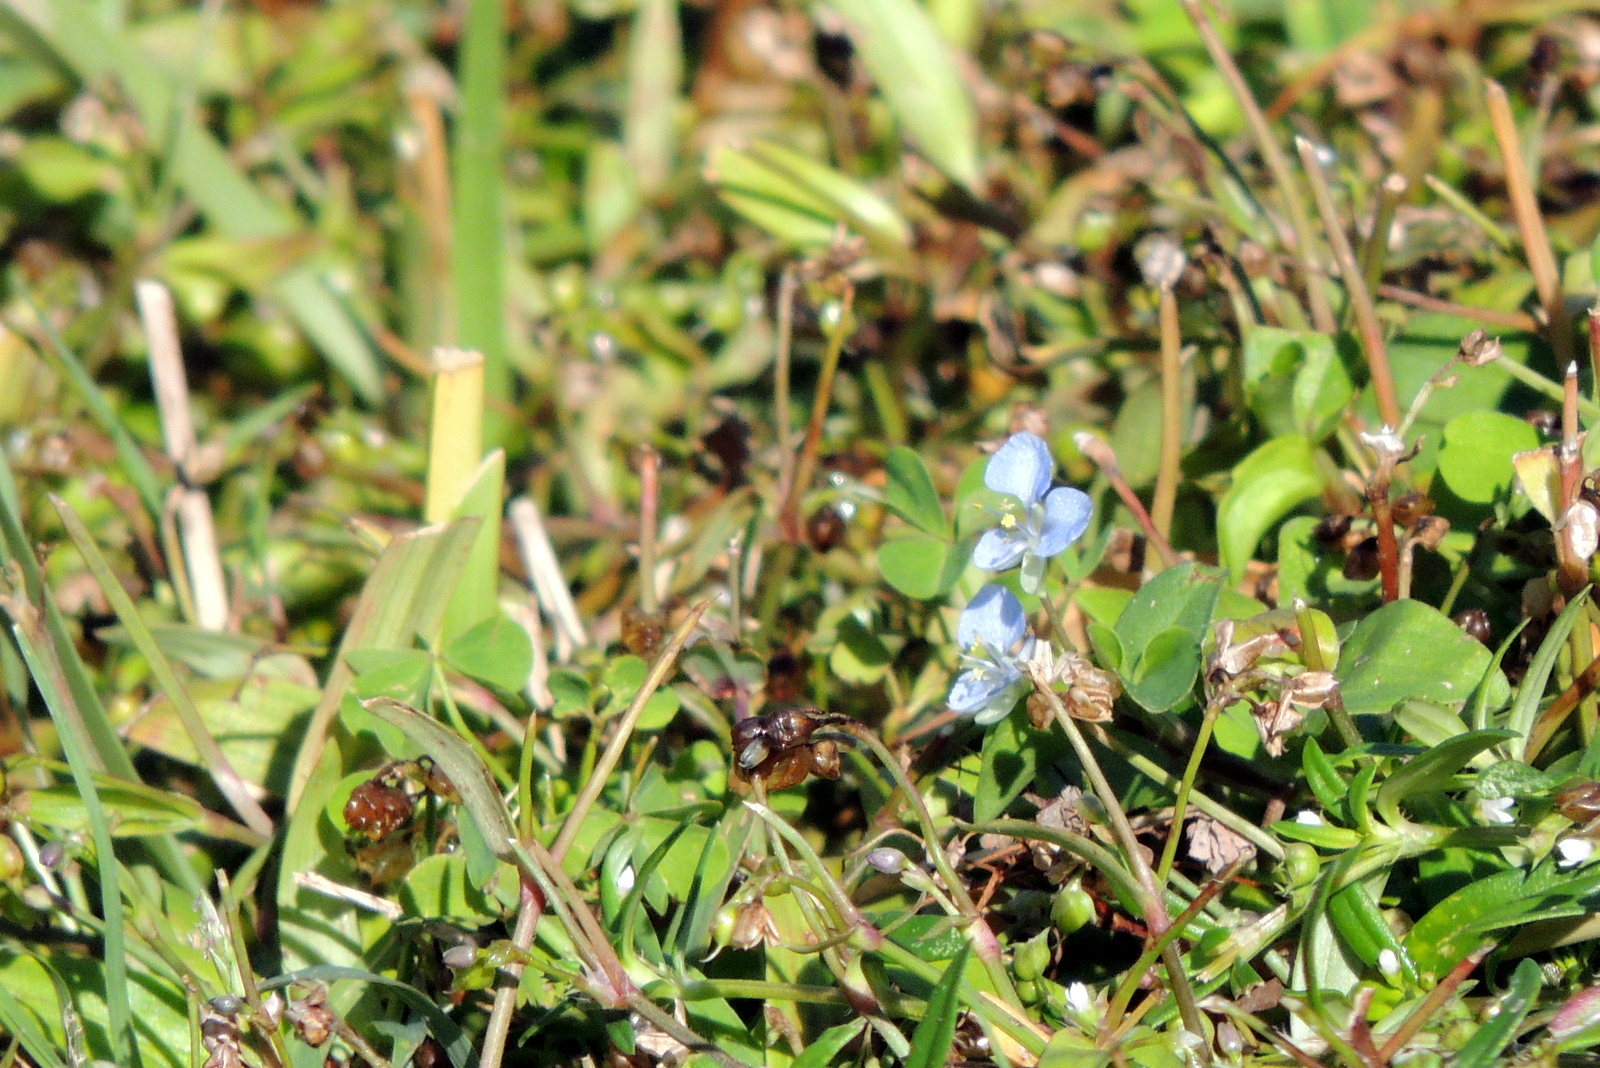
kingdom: Plantae
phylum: Tracheophyta
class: Liliopsida
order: Commelinales
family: Commelinaceae
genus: Commelina
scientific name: Commelina diffusa
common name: Climbing dayflower
